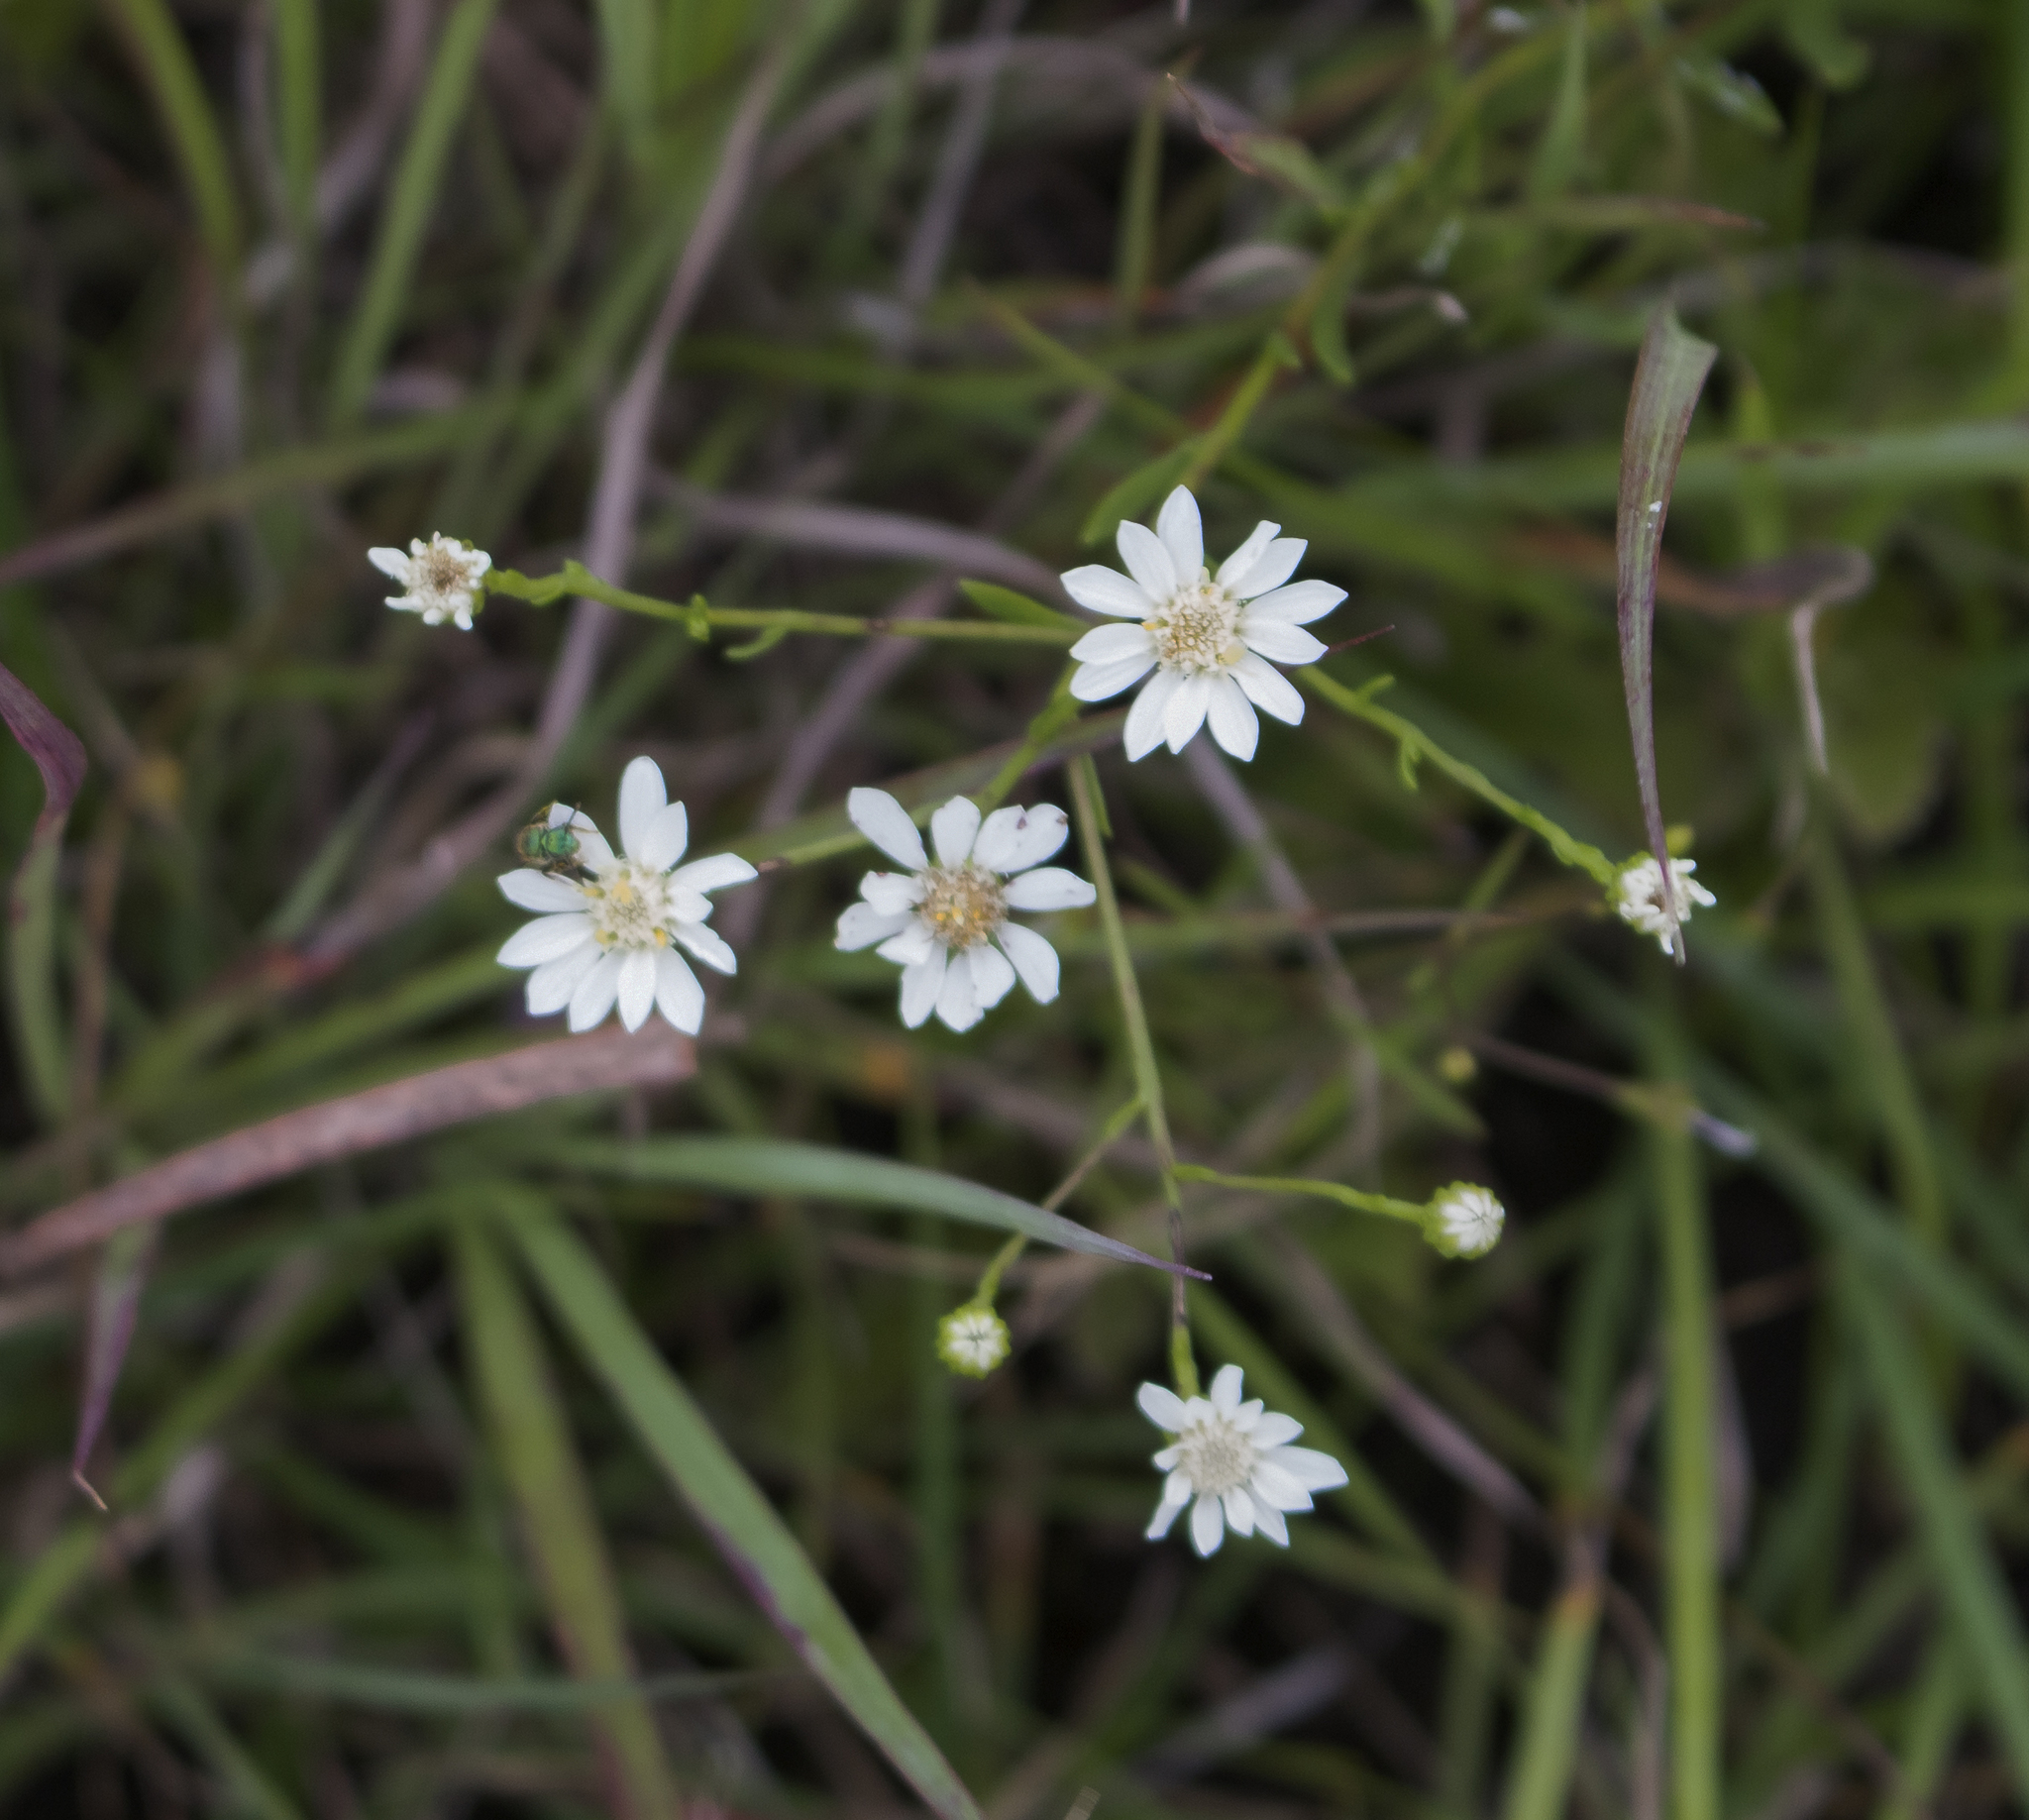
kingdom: Plantae
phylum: Tracheophyta
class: Magnoliopsida
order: Asterales
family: Asteraceae
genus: Solidago
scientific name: Solidago ptarmicoides
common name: White flat-top goldenrod
